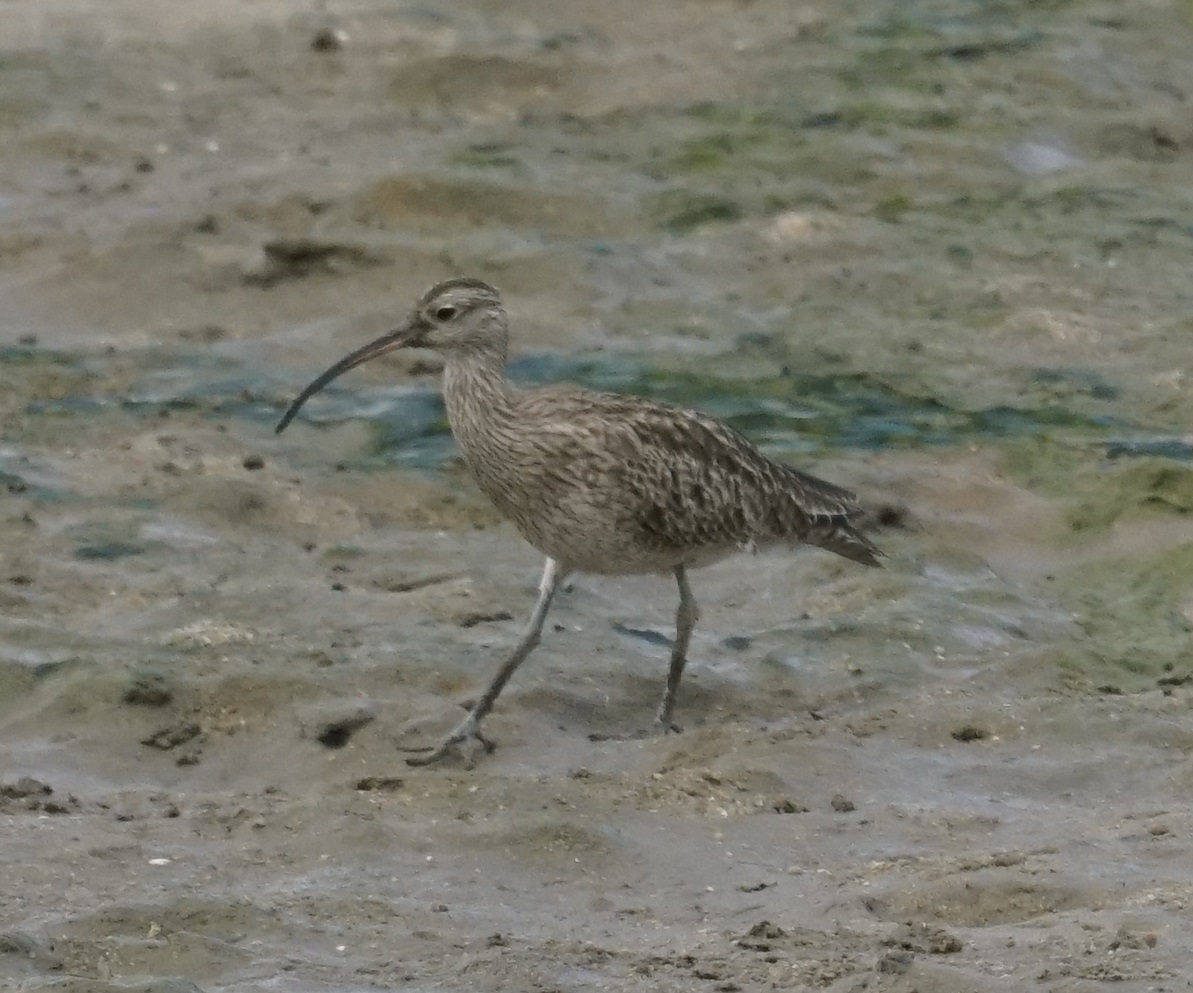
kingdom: Animalia
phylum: Chordata
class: Aves
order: Charadriiformes
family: Scolopacidae
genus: Numenius
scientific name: Numenius phaeopus
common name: Whimbrel
